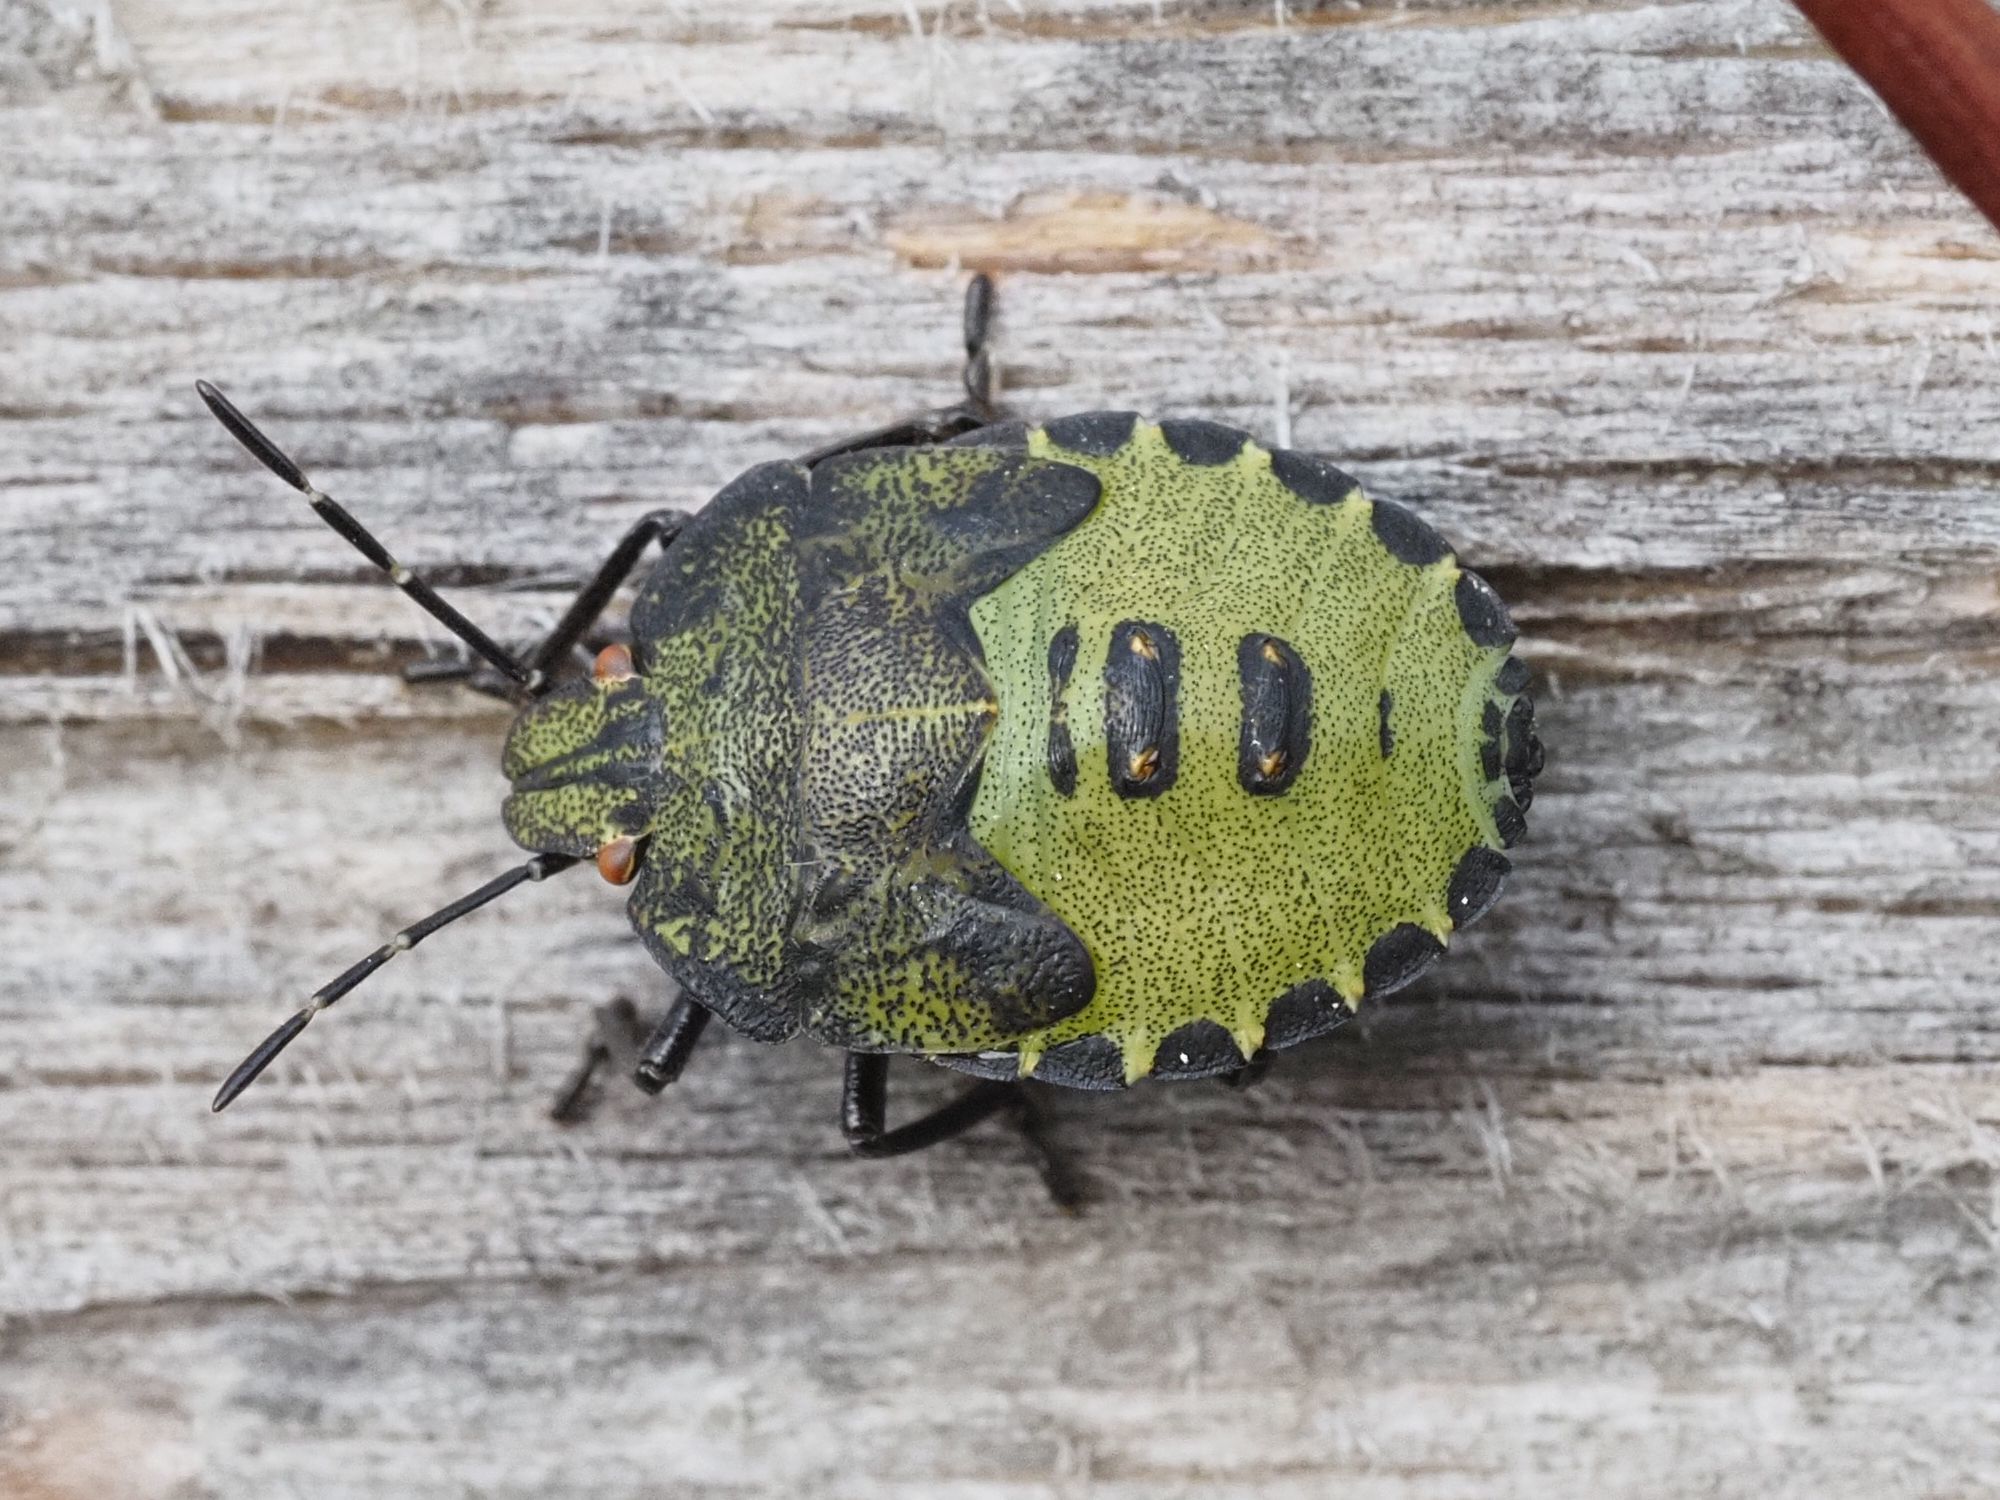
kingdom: Animalia
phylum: Arthropoda
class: Insecta
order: Hemiptera
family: Pentatomidae
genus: Palomena
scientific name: Palomena prasina
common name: Green shieldbug
